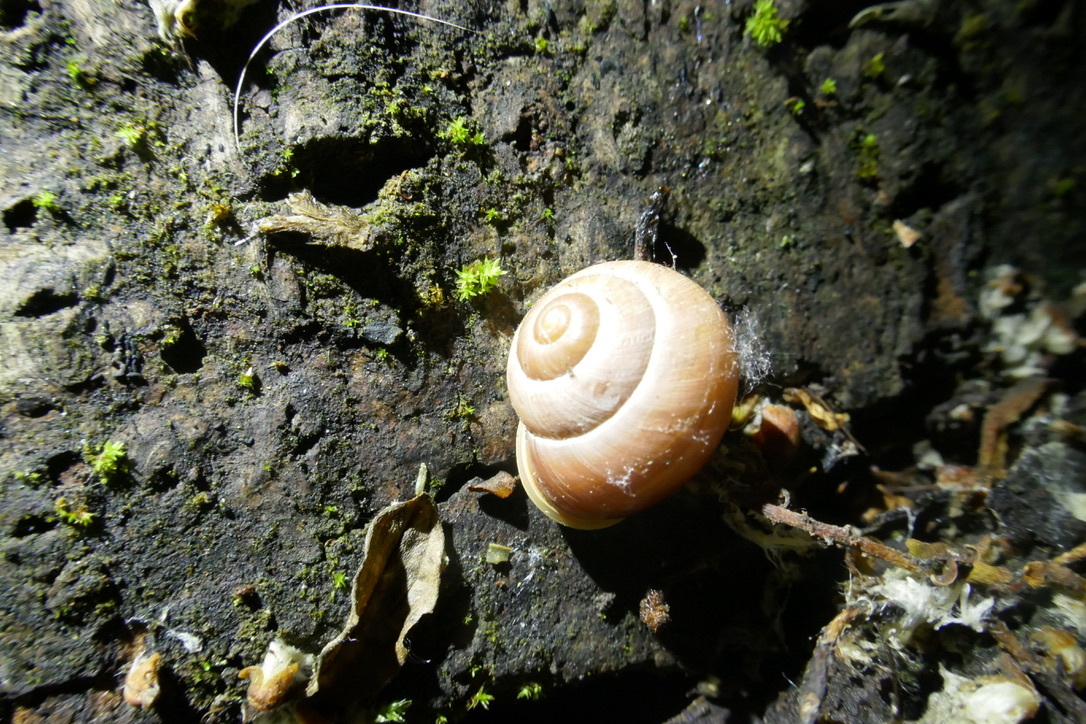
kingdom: Animalia
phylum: Mollusca
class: Gastropoda
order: Stylommatophora
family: Helicidae
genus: Cepaea
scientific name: Cepaea hortensis
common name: White-lip gardensnail
